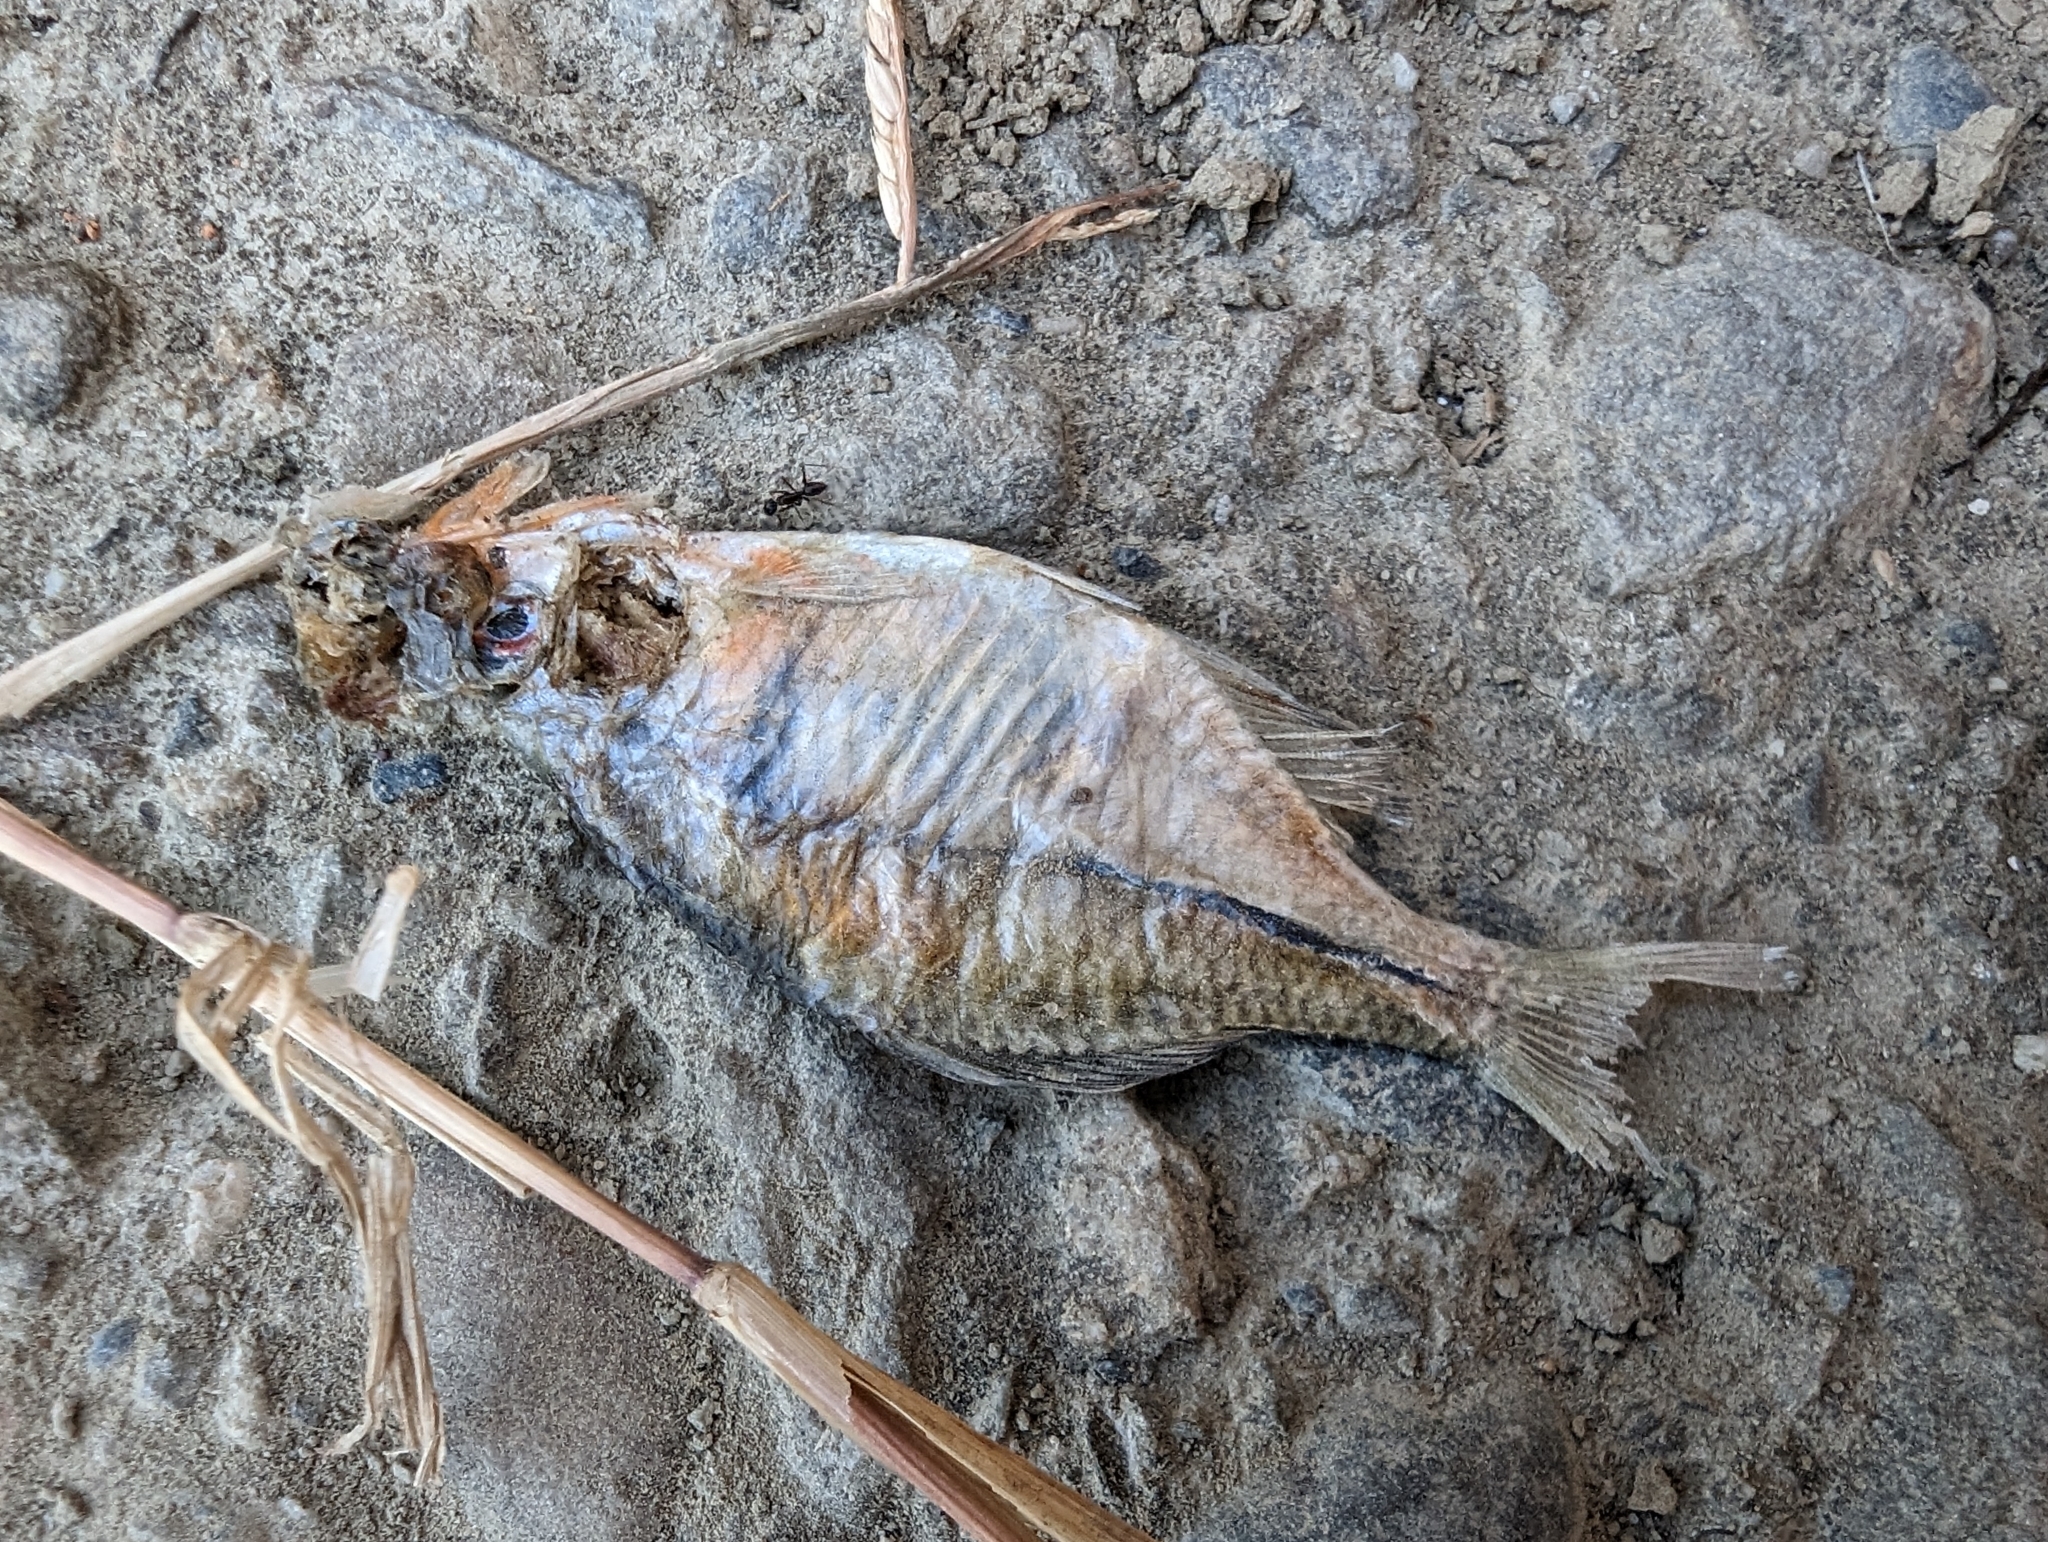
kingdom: Animalia
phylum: Chordata
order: Cypriniformes
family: Cyprinidae
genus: Rhodeus
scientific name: Rhodeus ocellatus
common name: Rose bitterling
